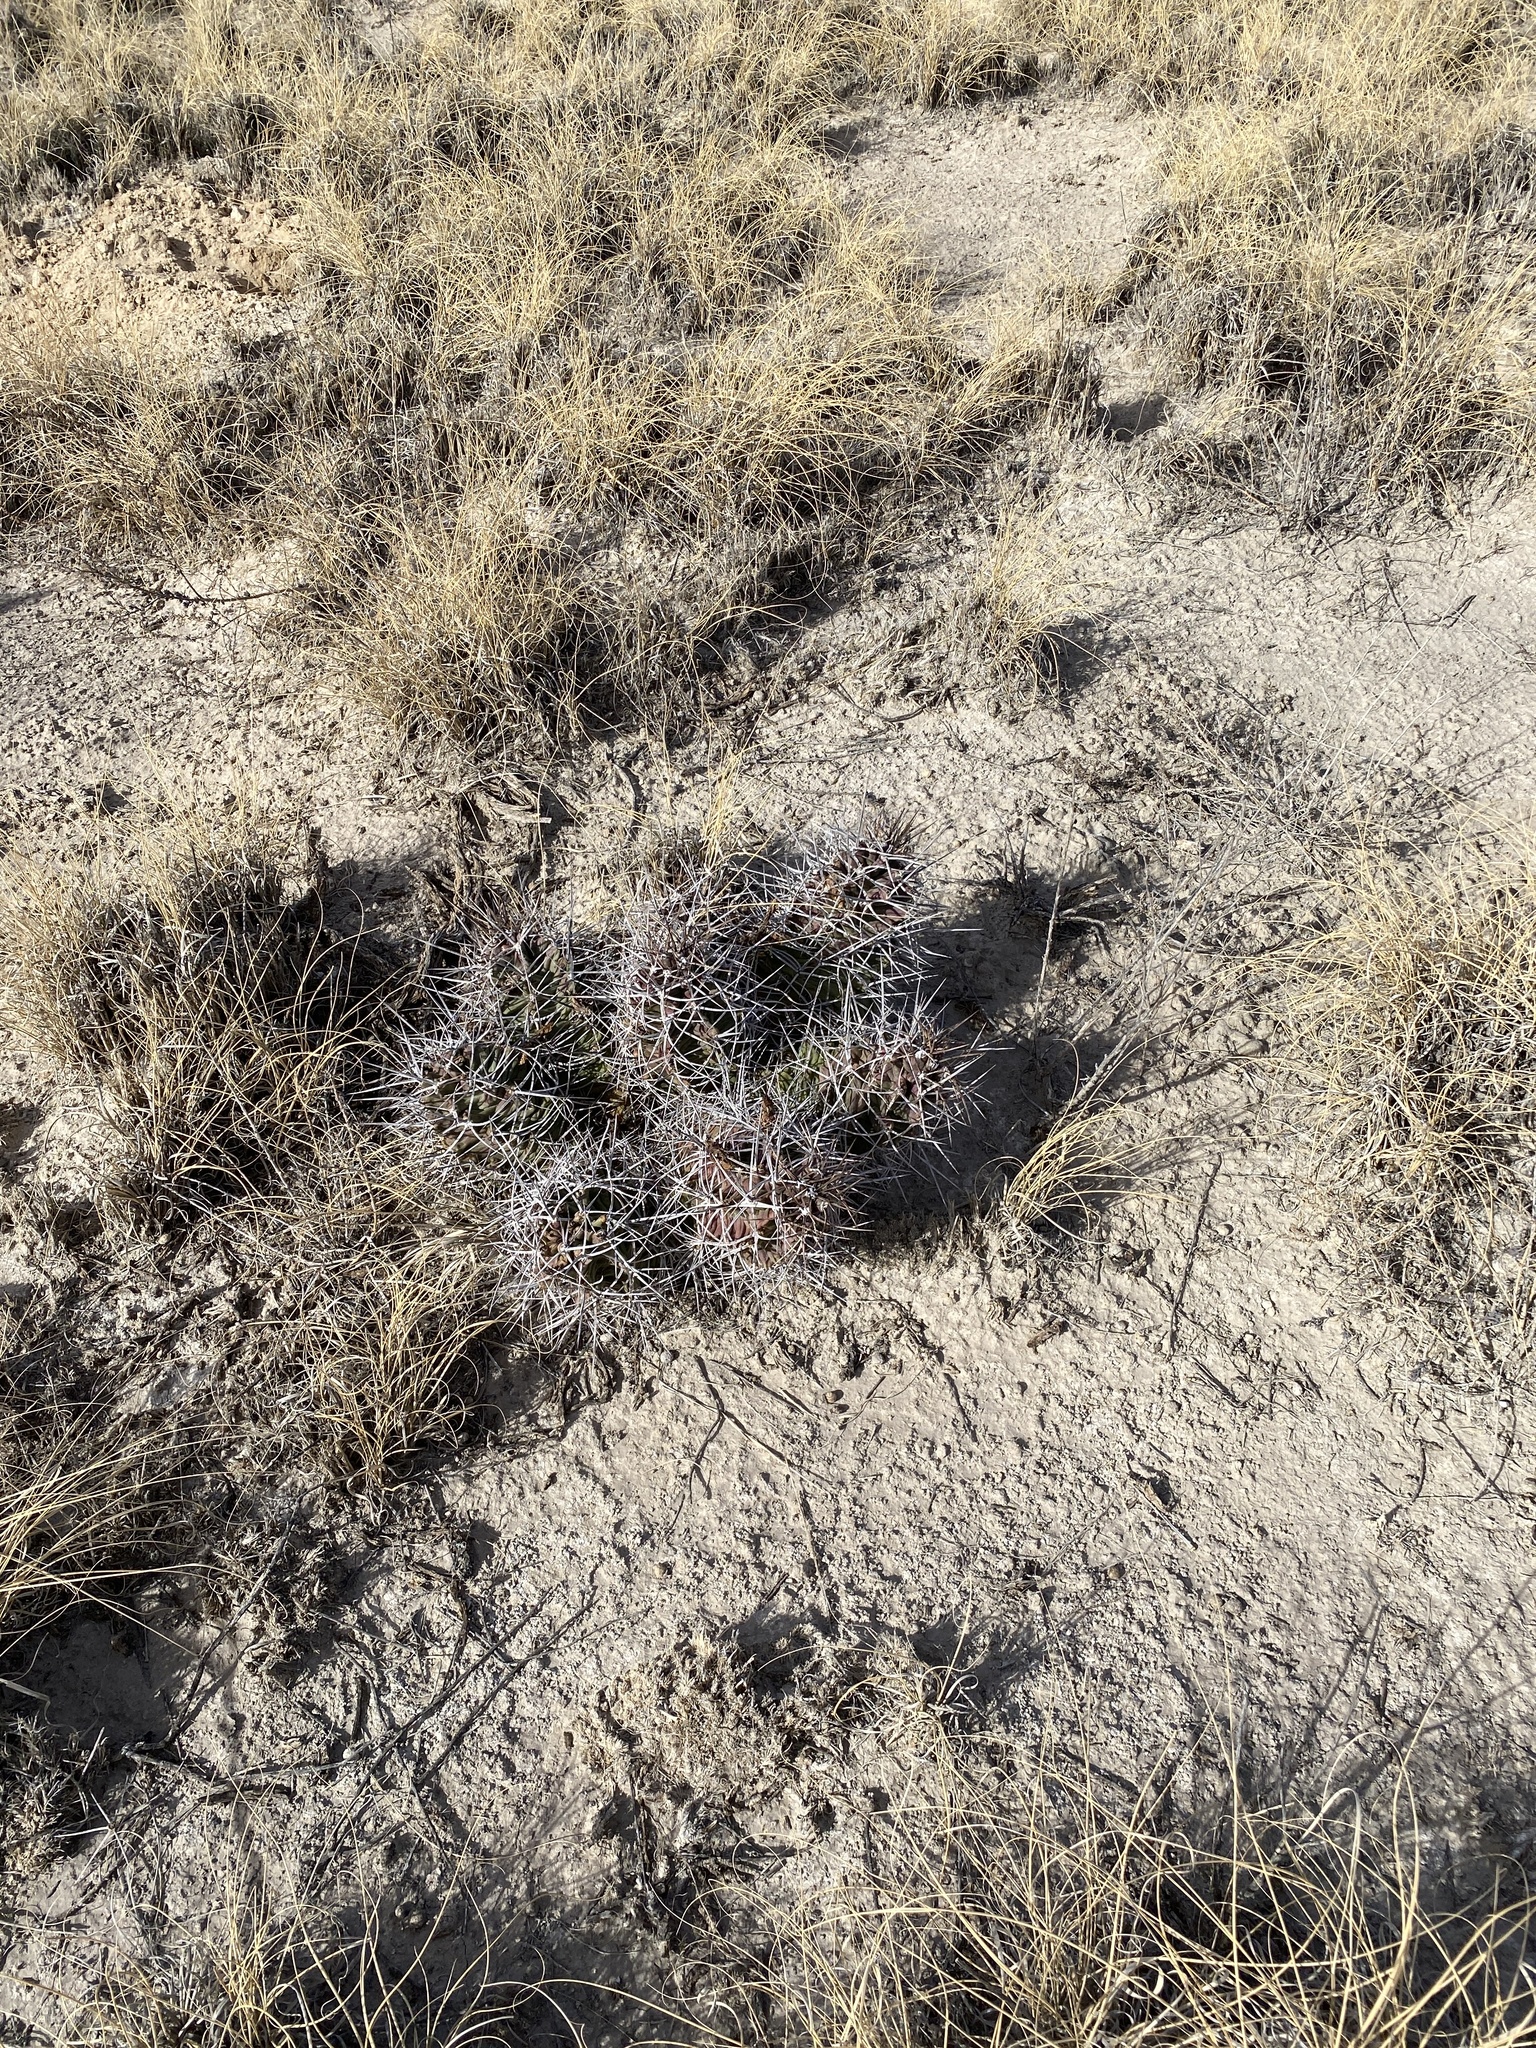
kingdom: Plantae
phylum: Tracheophyta
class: Magnoliopsida
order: Caryophyllales
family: Cactaceae
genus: Echinocereus
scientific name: Echinocereus triglochidiatus
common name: Claretcup hedgehog
